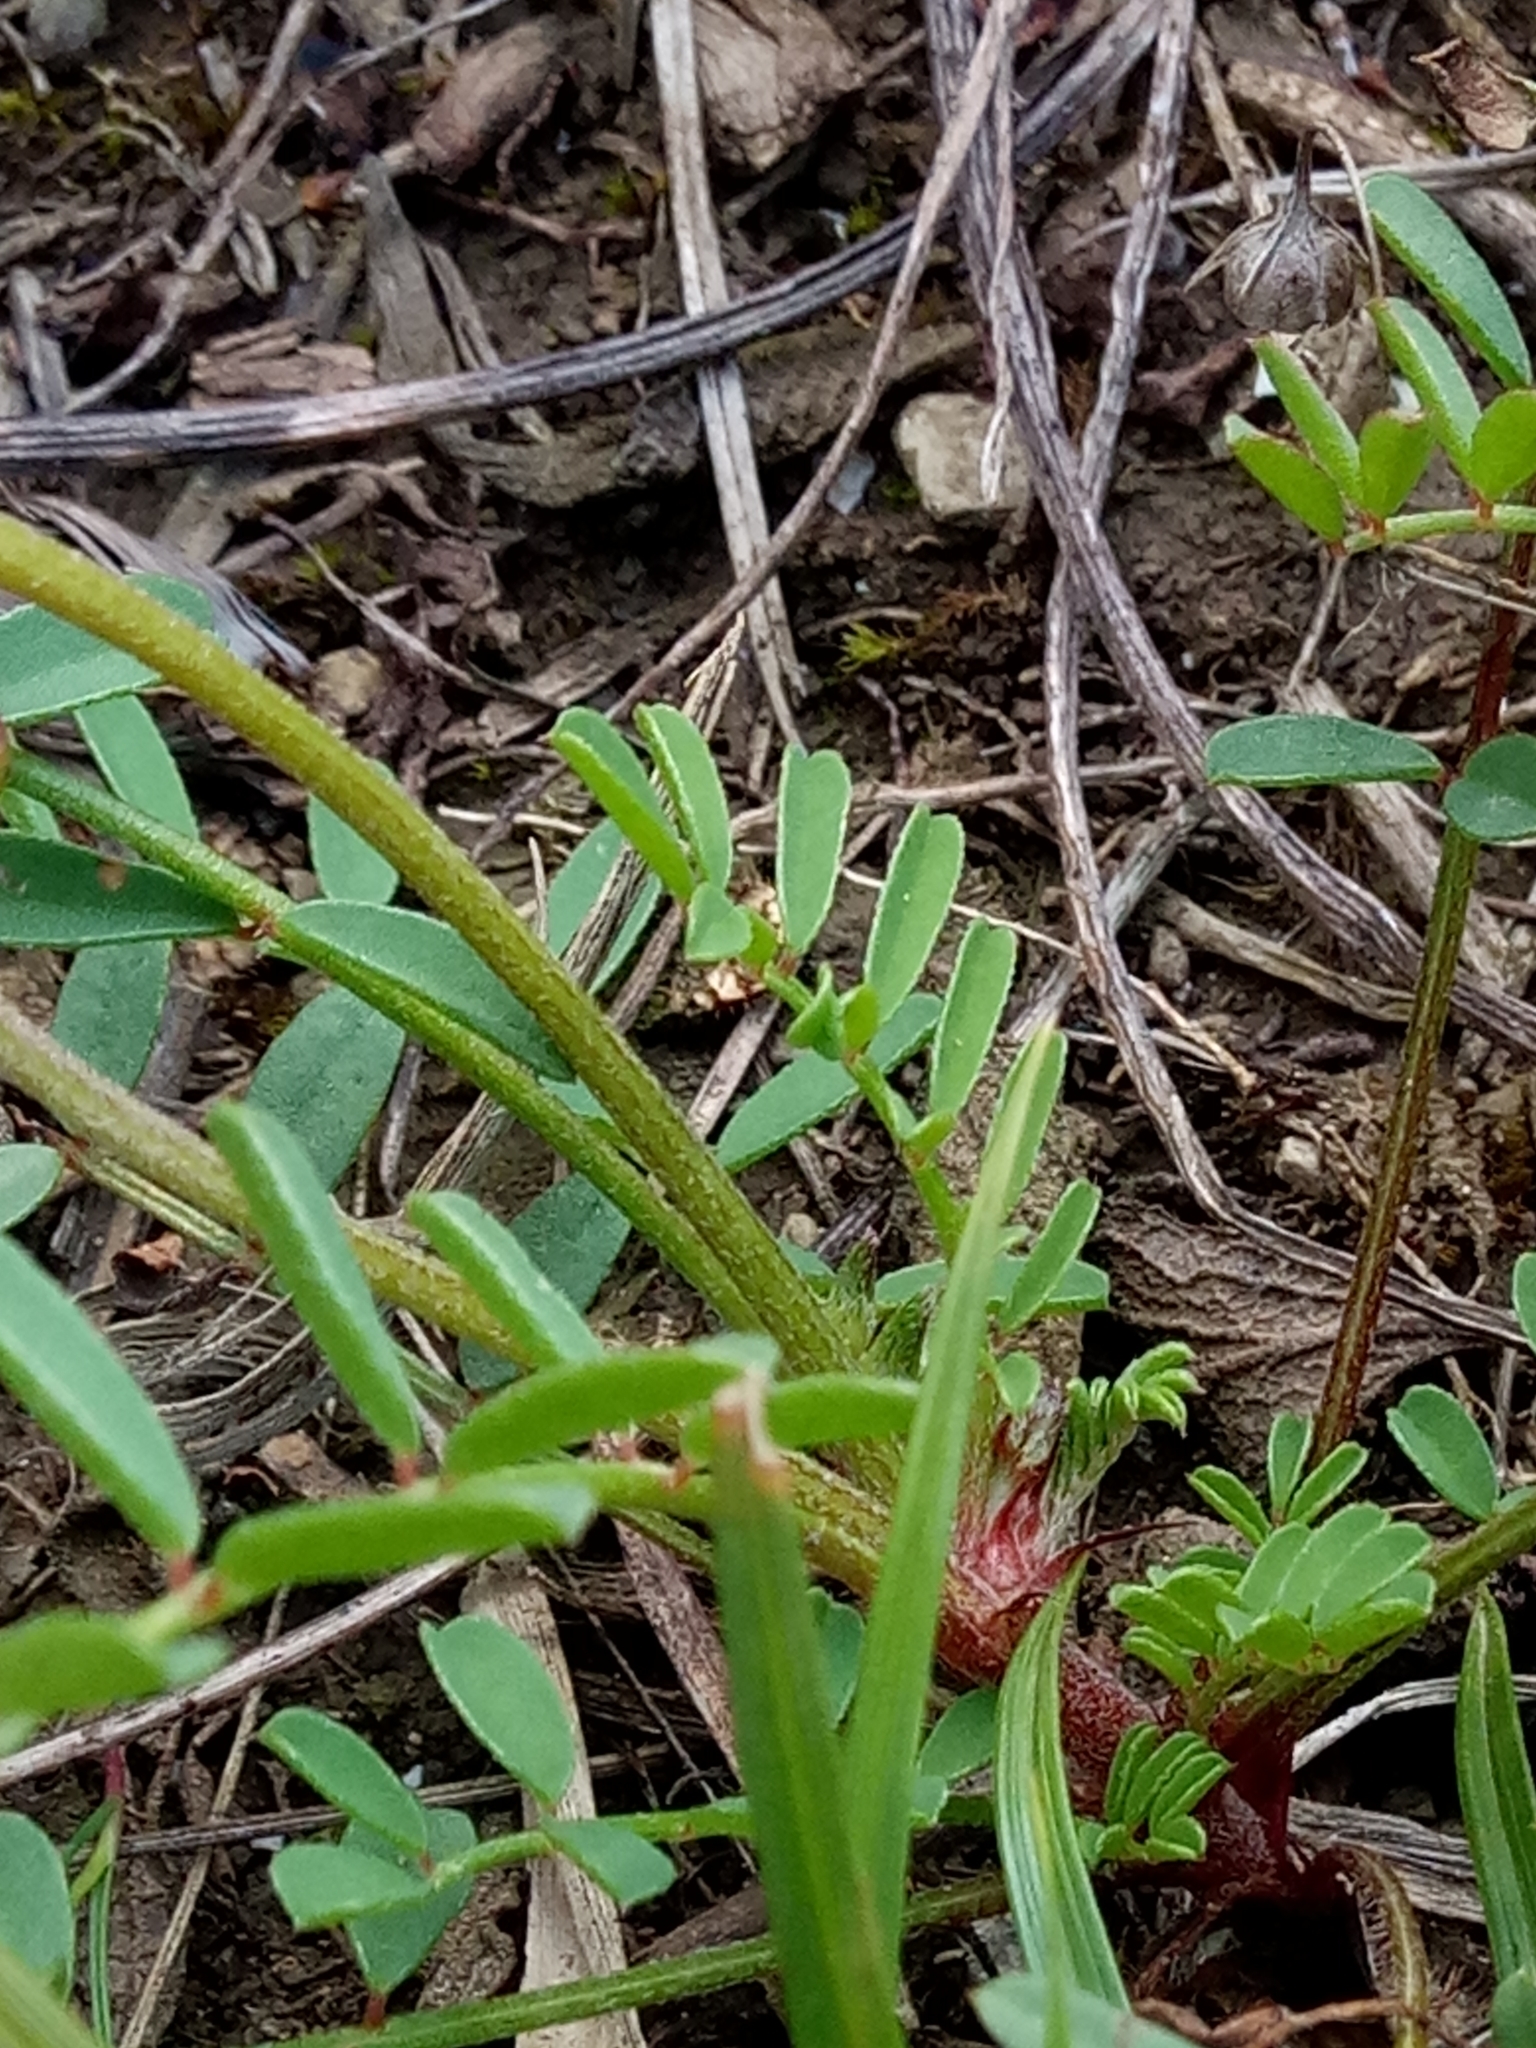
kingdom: Plantae
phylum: Tracheophyta
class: Magnoliopsida
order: Fabales
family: Fabaceae
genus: Sulla
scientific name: Sulla glomerata
